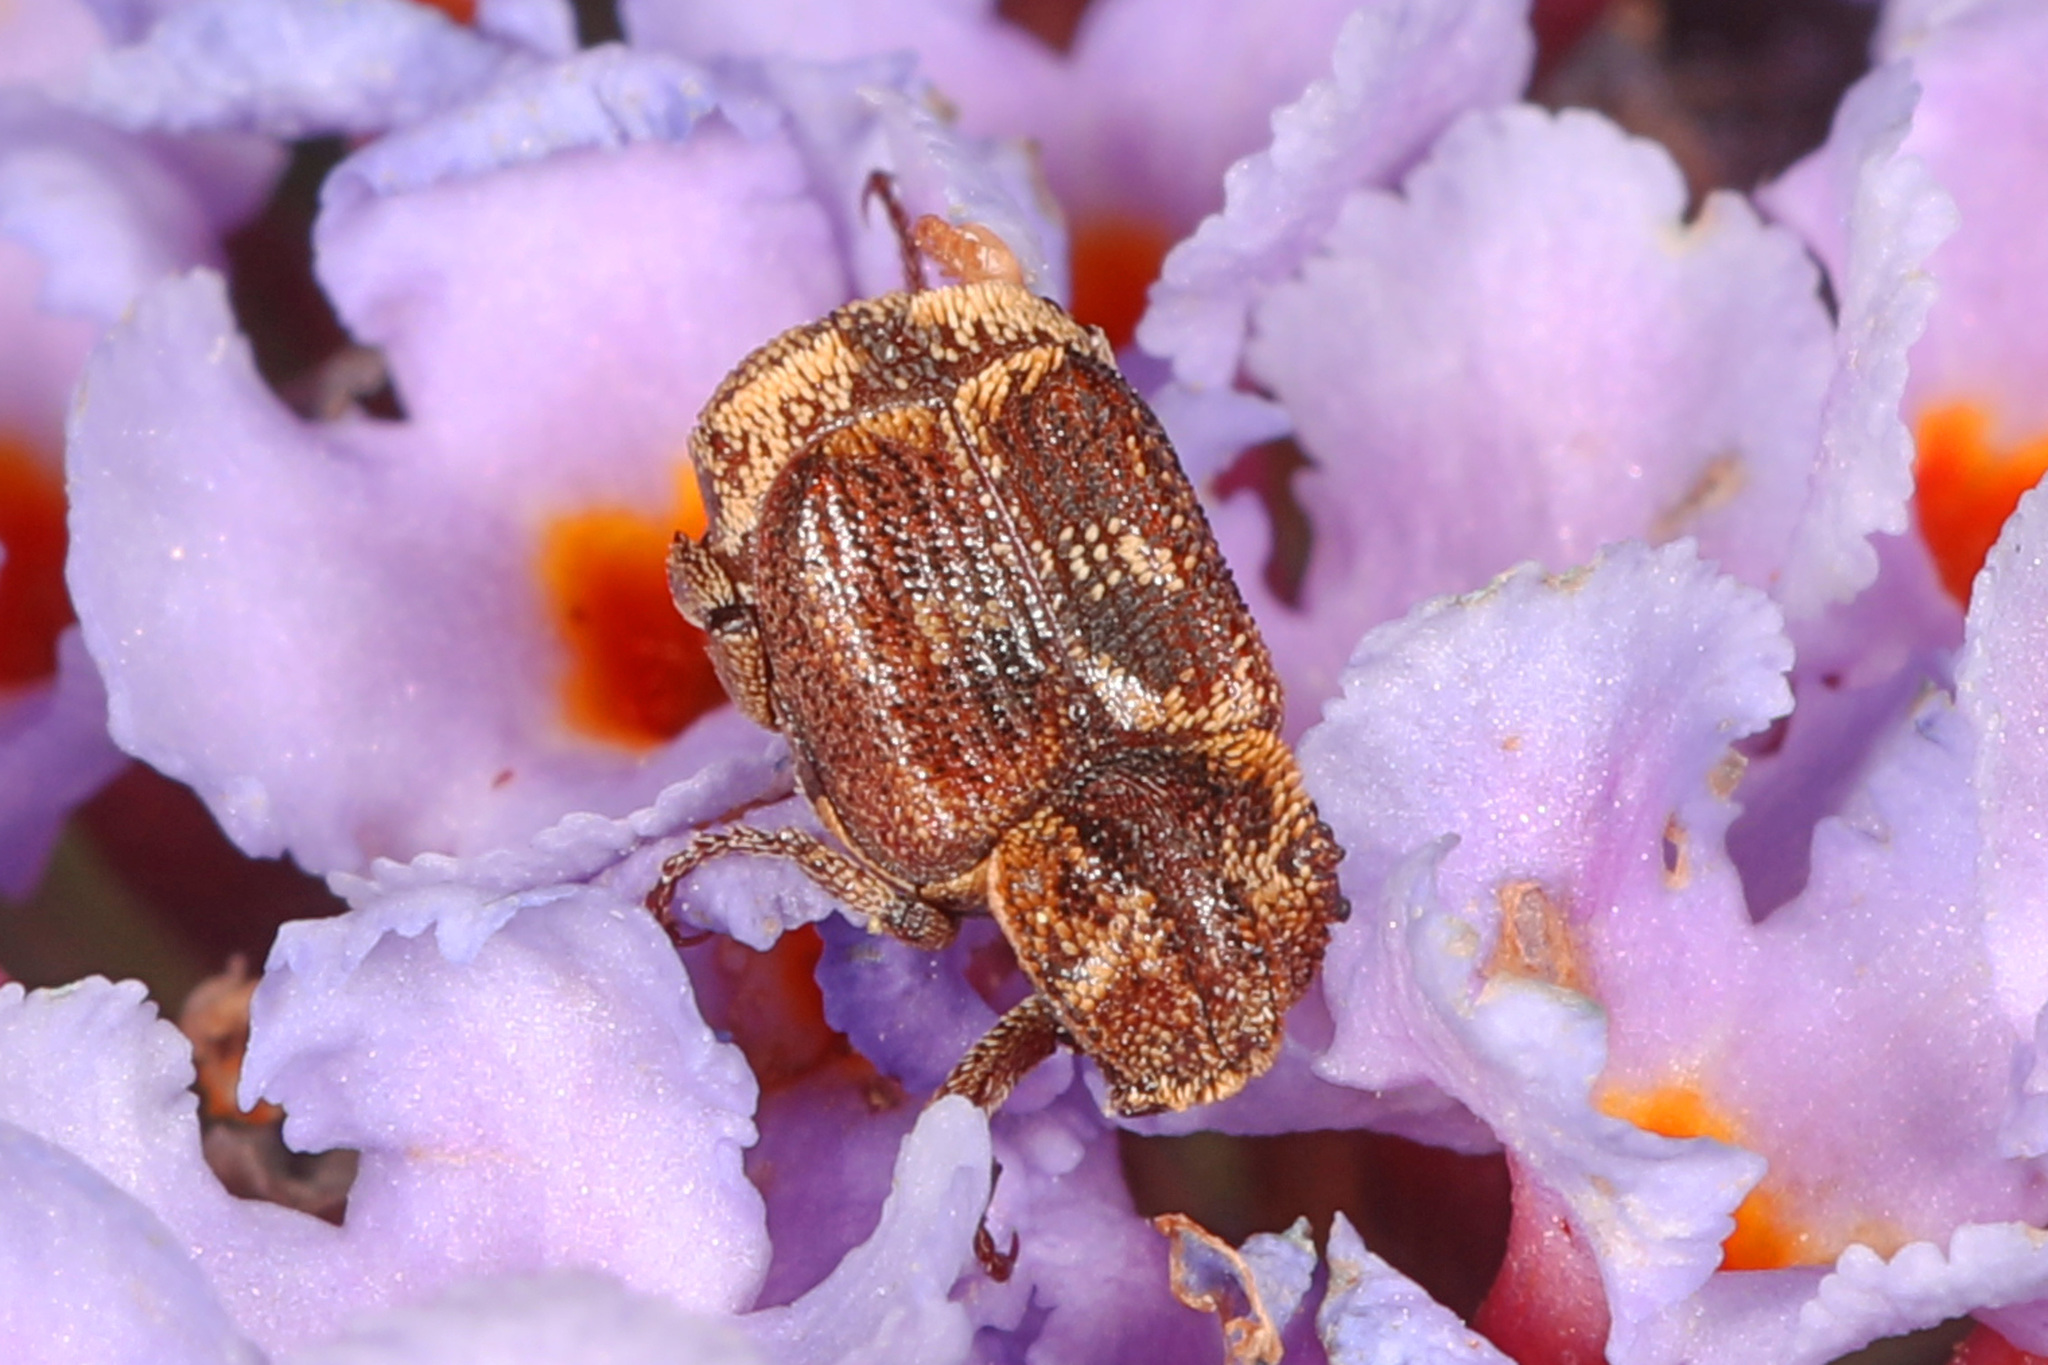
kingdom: Animalia
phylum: Arthropoda
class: Insecta
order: Coleoptera
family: Scarabaeidae
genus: Valgus
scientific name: Valgus canaliculatus
